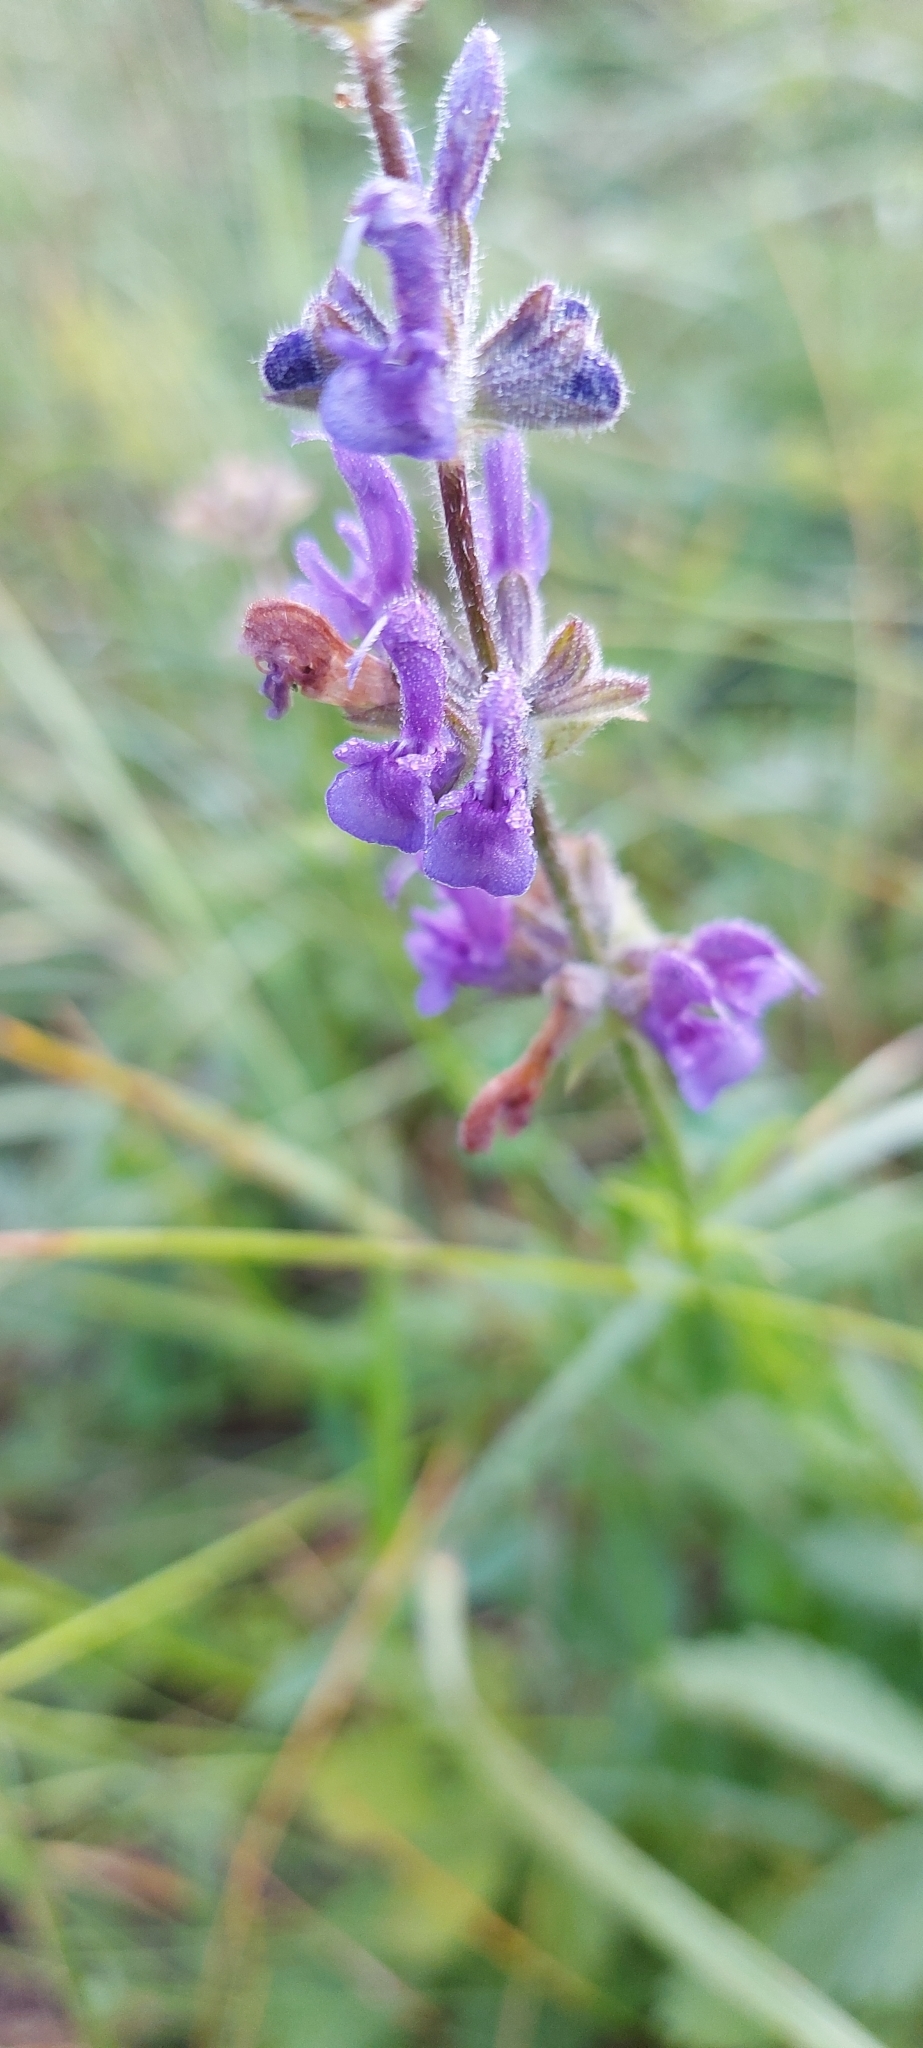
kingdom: Plantae
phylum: Tracheophyta
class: Magnoliopsida
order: Lamiales
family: Lamiaceae
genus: Salvia
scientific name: Salvia dumetorum
